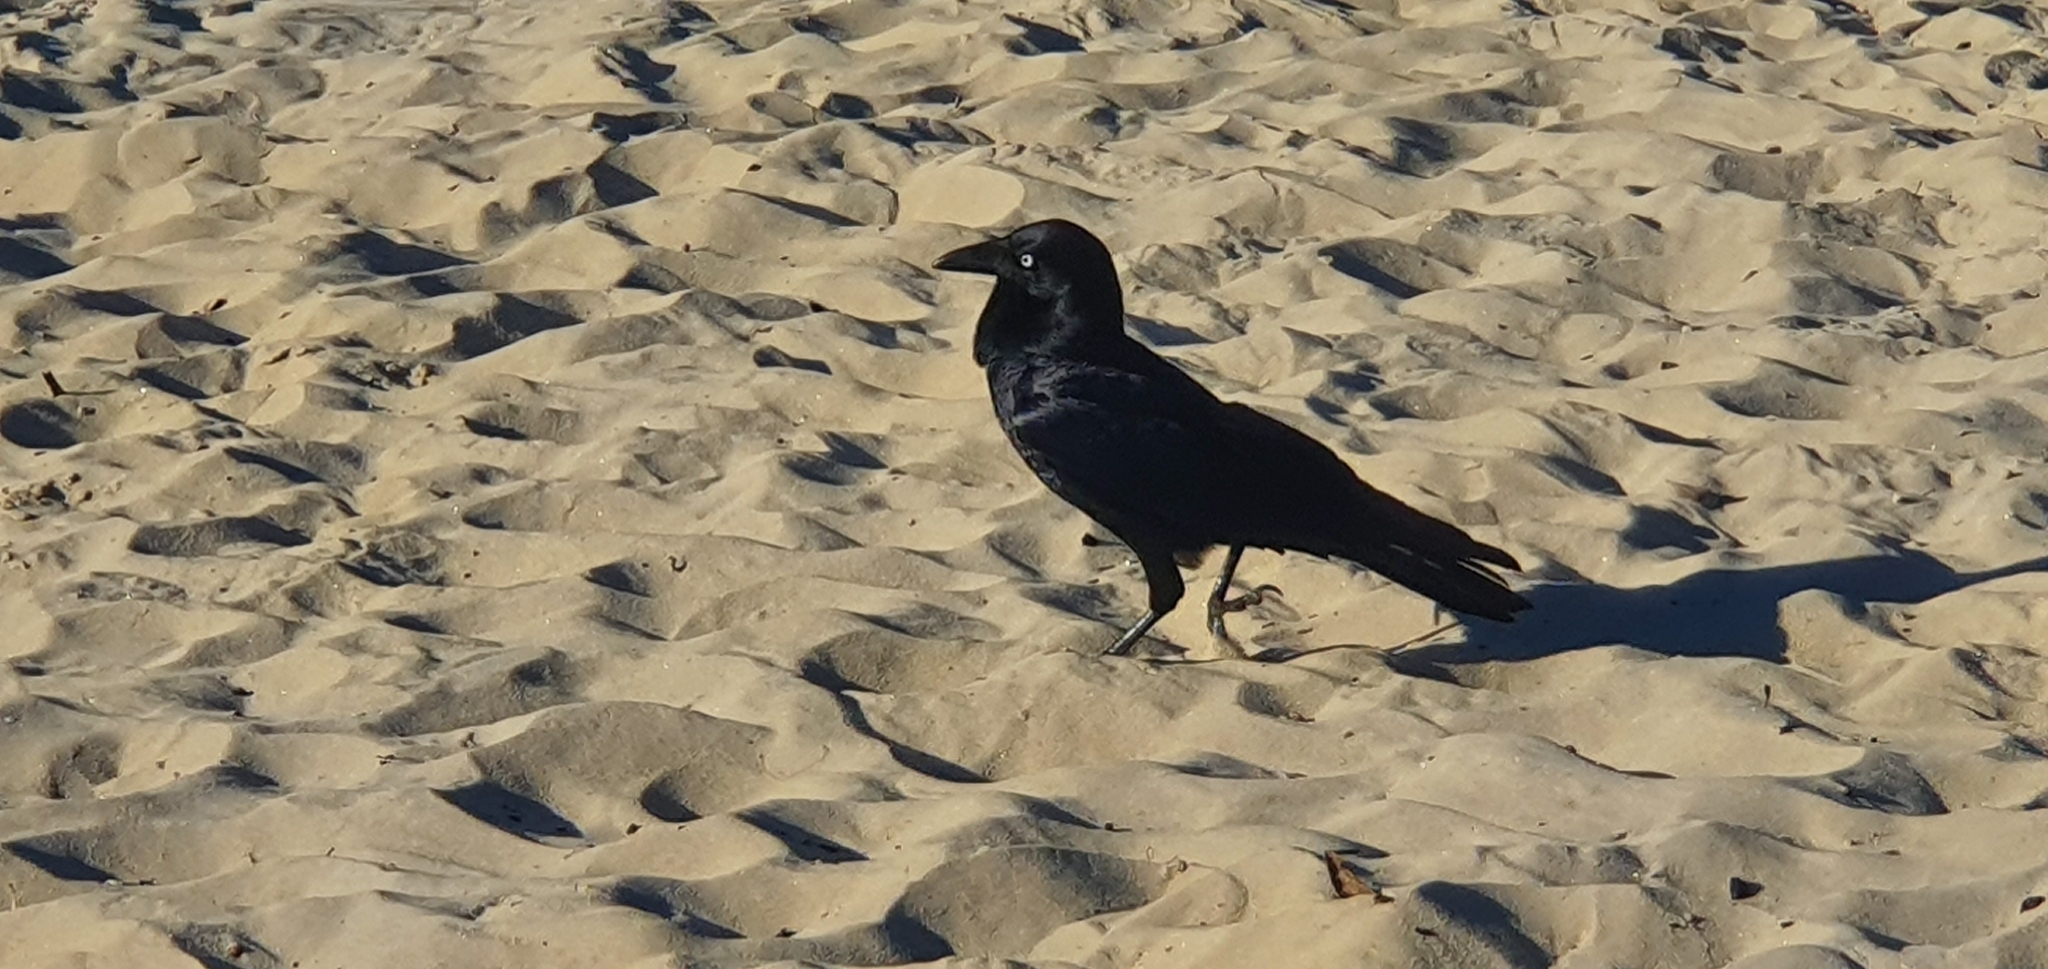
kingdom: Animalia
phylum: Chordata
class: Aves
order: Passeriformes
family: Corvidae
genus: Corvus
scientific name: Corvus coronoides
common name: Australian raven
